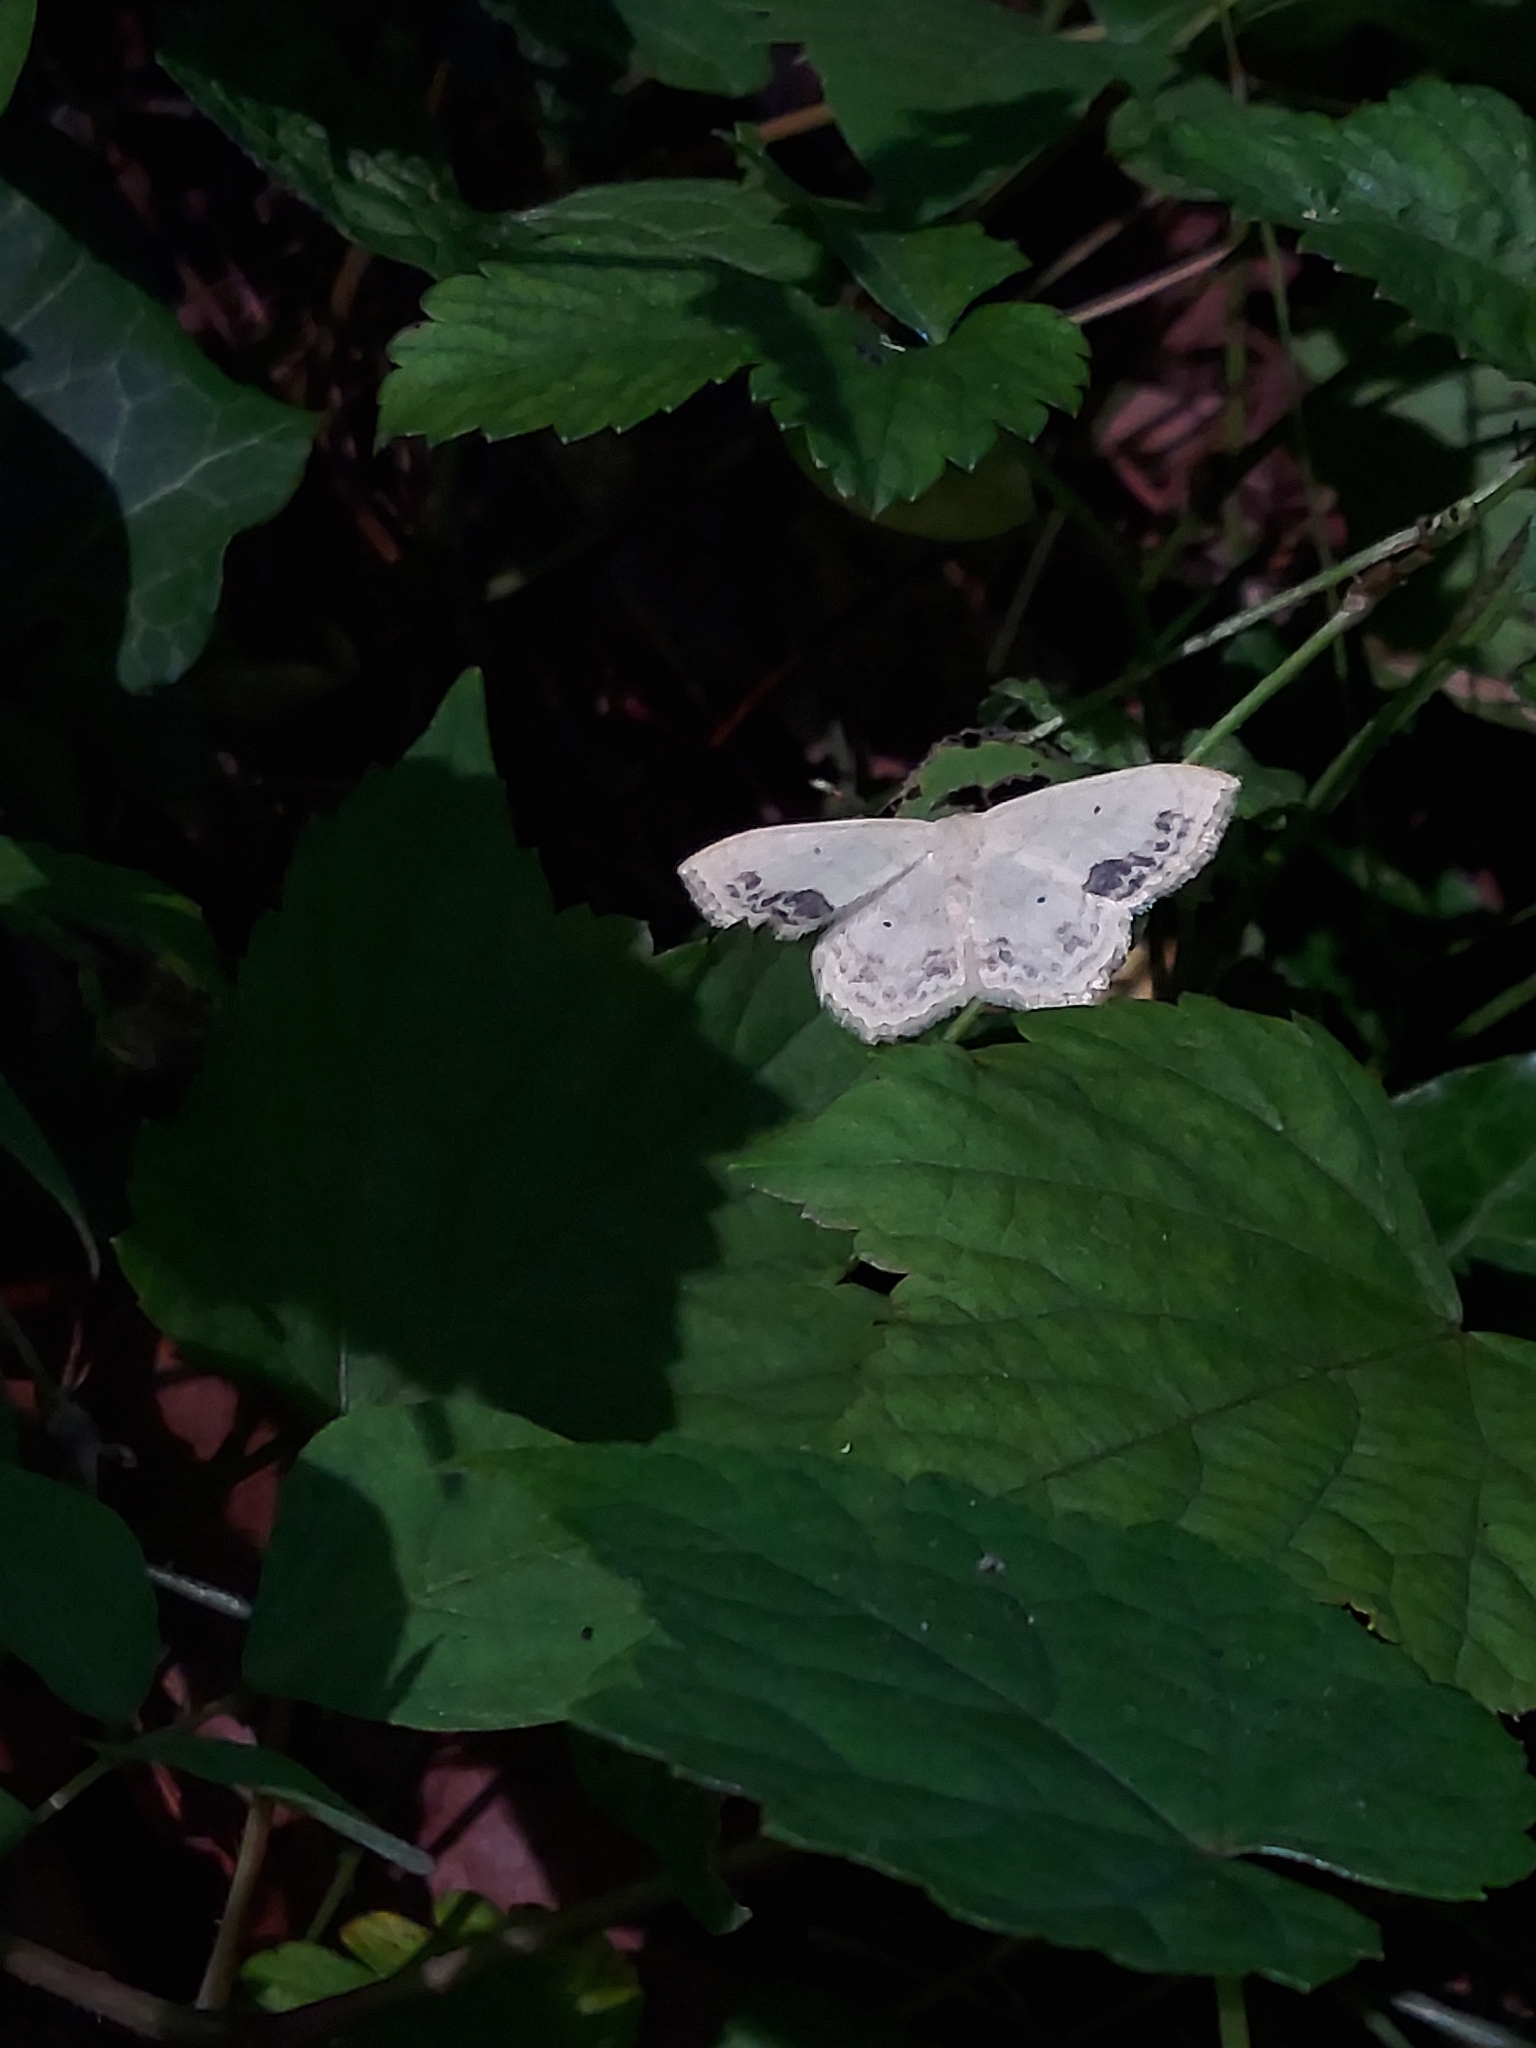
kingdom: Animalia
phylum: Arthropoda
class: Insecta
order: Lepidoptera
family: Geometridae
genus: Scopula
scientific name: Scopula limboundata
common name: Large lace border
